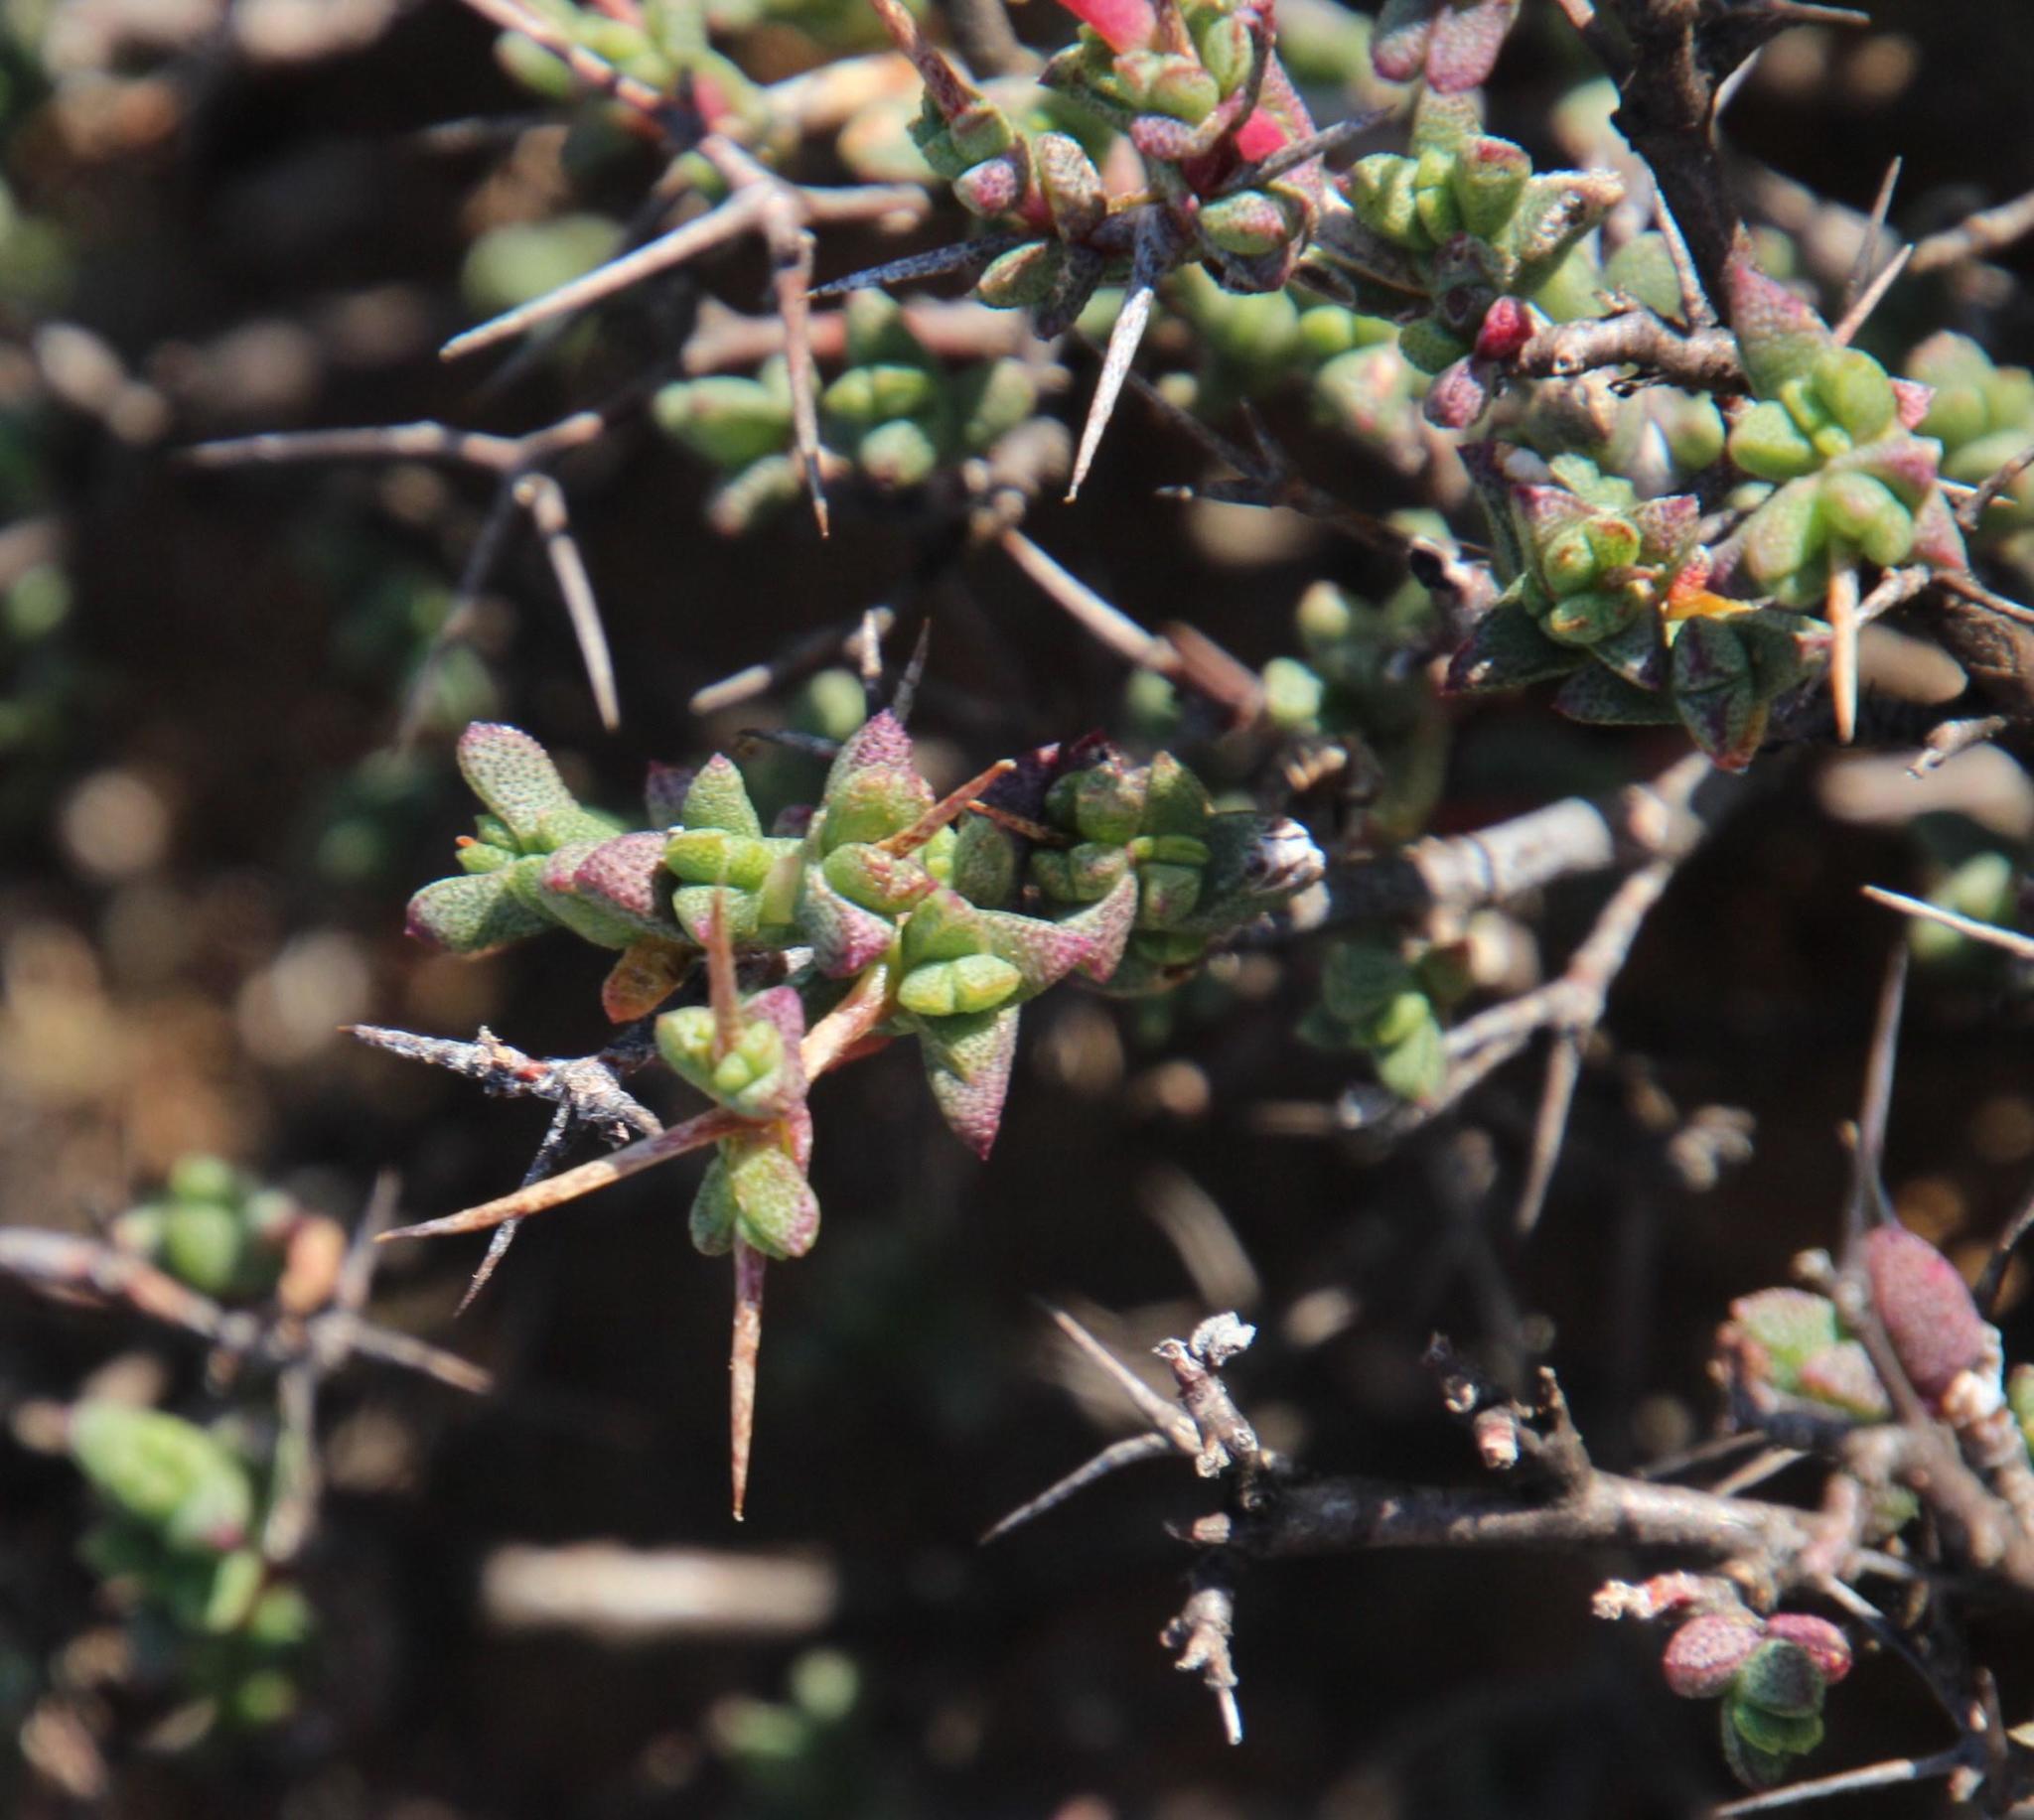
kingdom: Plantae
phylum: Tracheophyta
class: Magnoliopsida
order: Caryophyllales
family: Aizoaceae
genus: Ruschia
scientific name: Ruschia cradockensis
